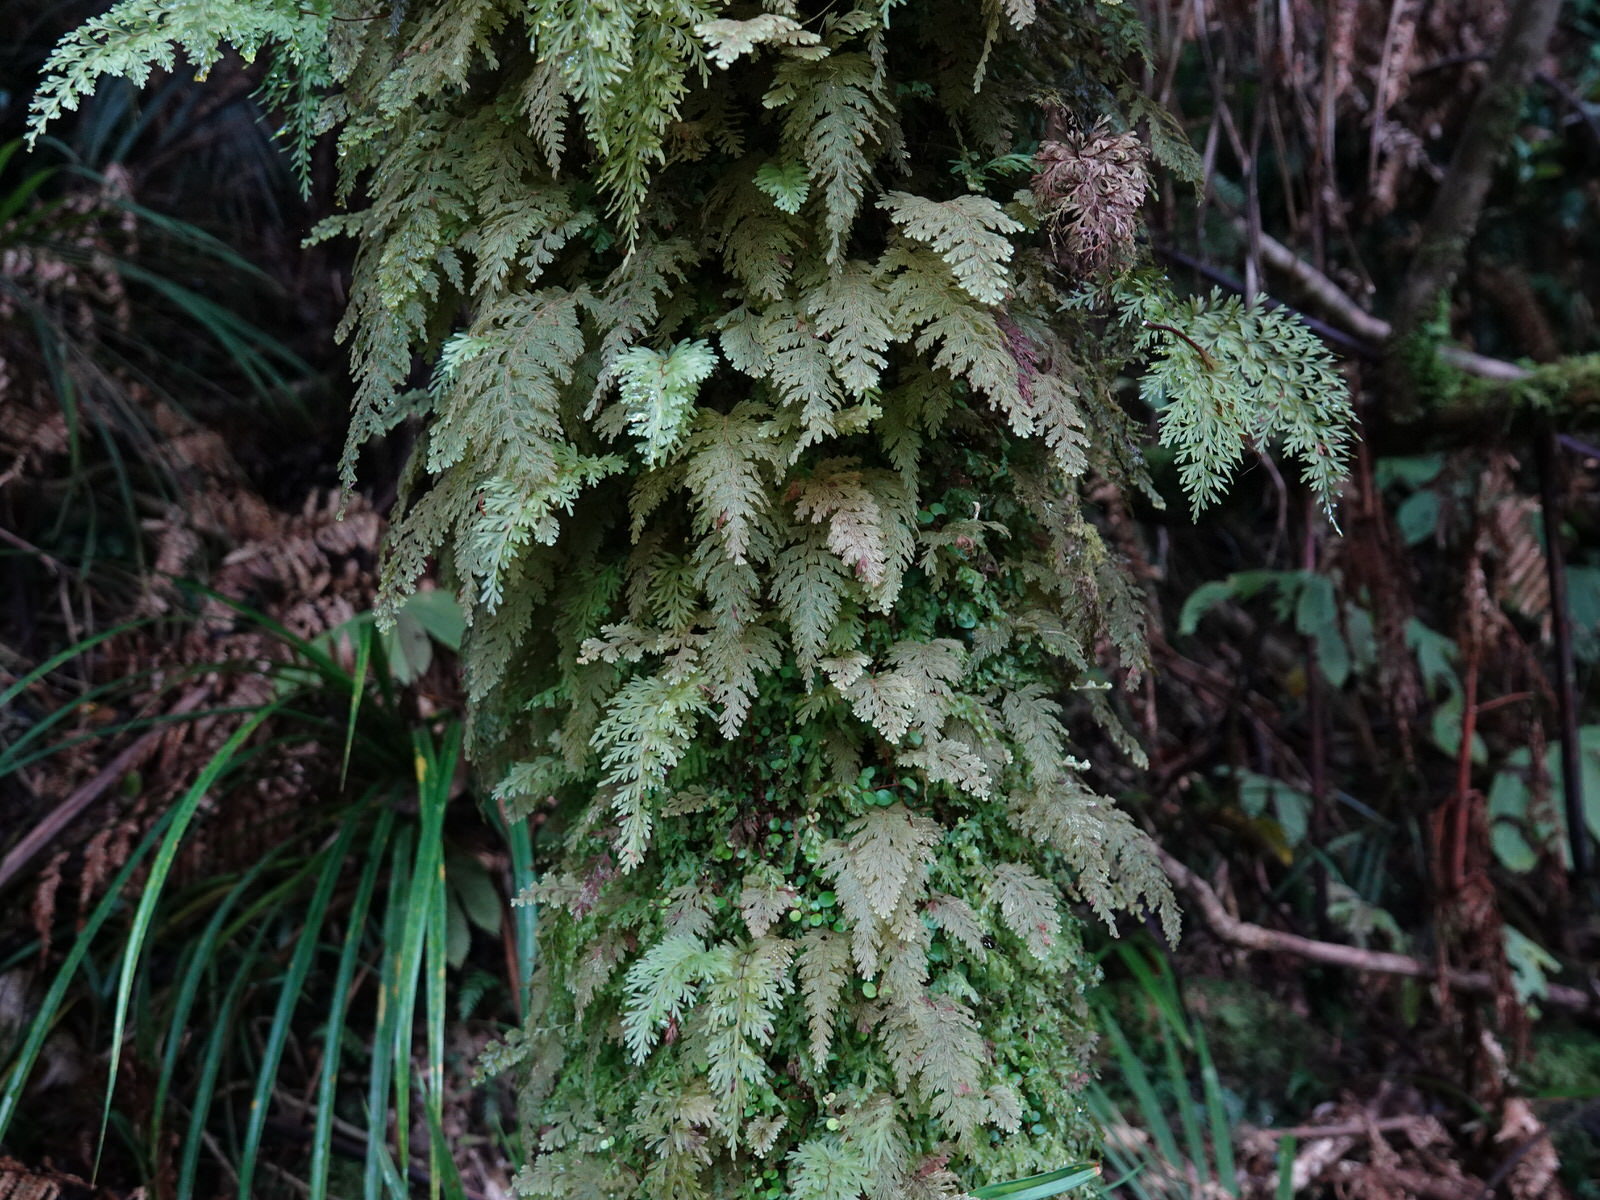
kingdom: Plantae
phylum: Tracheophyta
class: Polypodiopsida
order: Hymenophyllales
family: Hymenophyllaceae
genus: Hymenophyllum
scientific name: Hymenophyllum frankliniae
